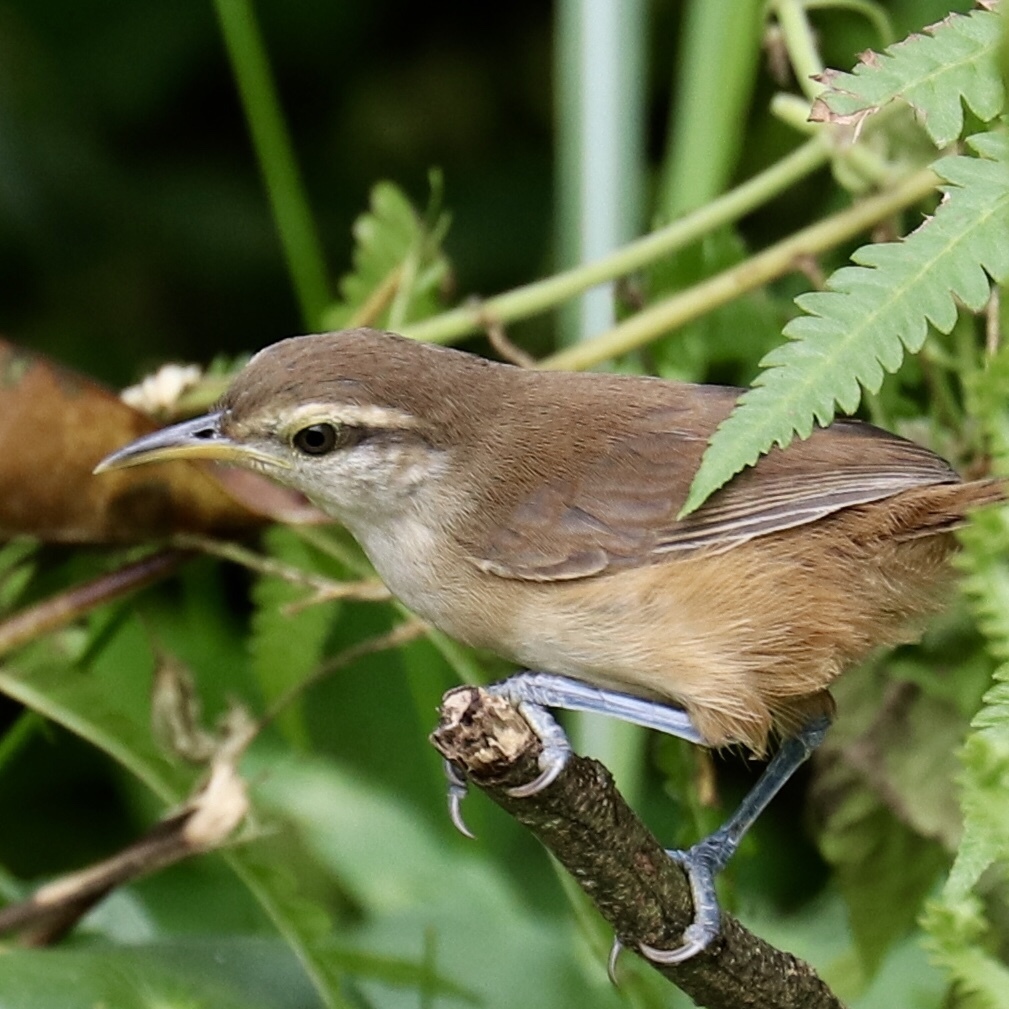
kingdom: Animalia
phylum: Chordata
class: Aves
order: Passeriformes
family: Troglodytidae
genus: Cantorchilus
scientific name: Cantorchilus modestus
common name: Cabanis's wren
